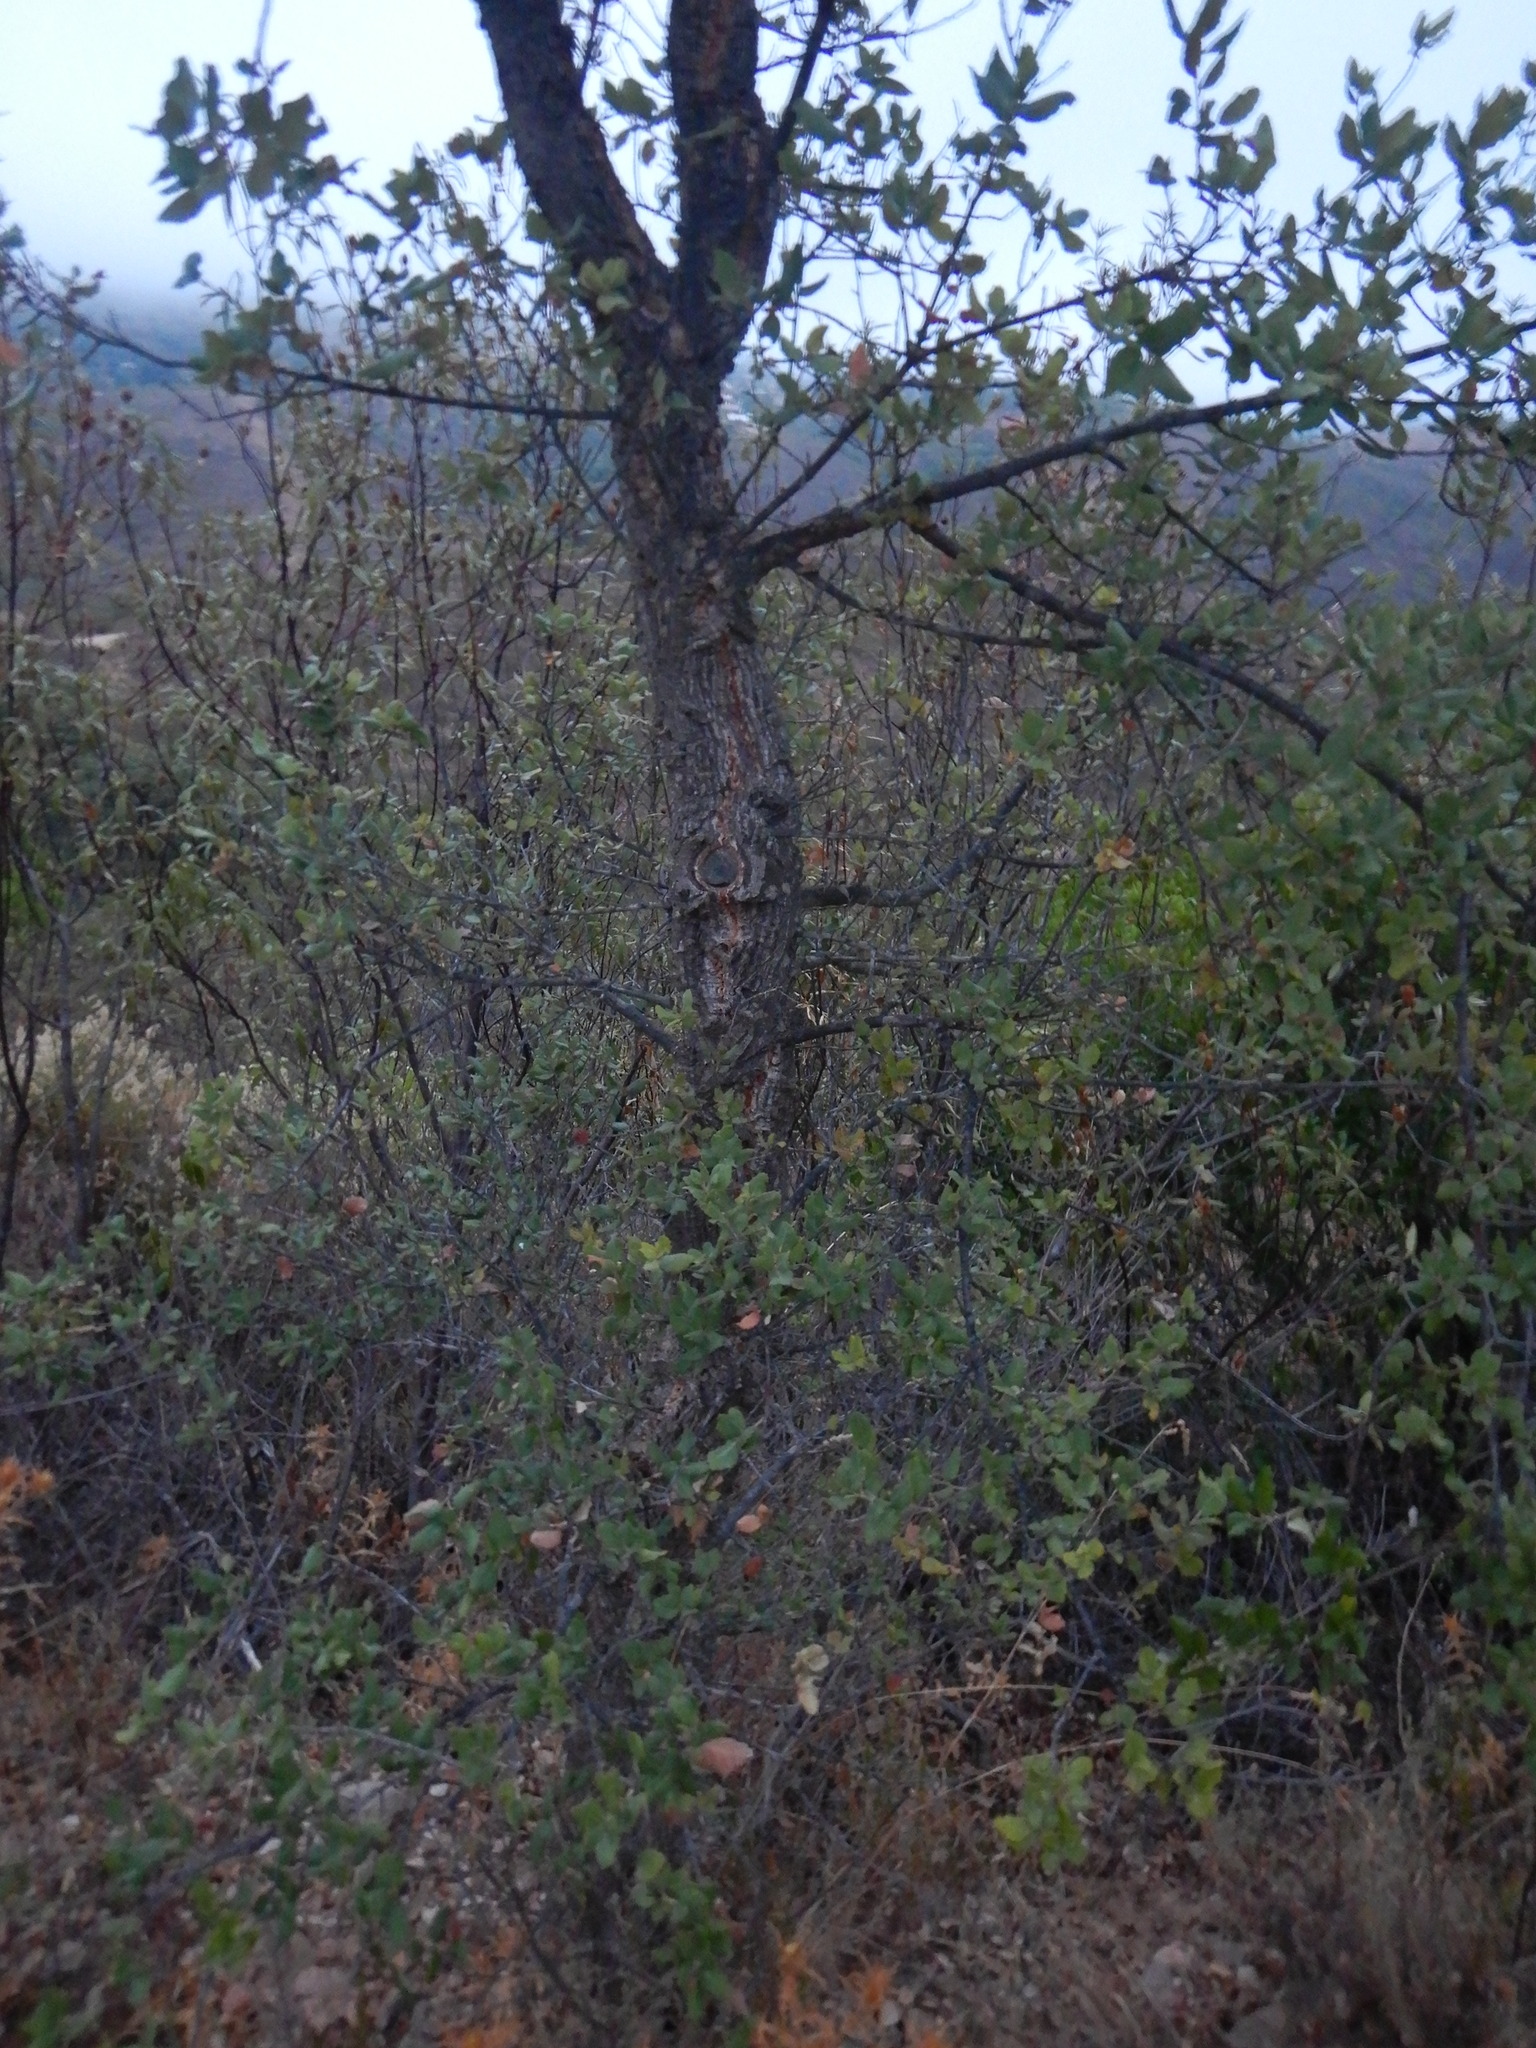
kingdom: Plantae
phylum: Tracheophyta
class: Magnoliopsida
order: Fagales
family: Fagaceae
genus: Quercus
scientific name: Quercus suber
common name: Cork oak
